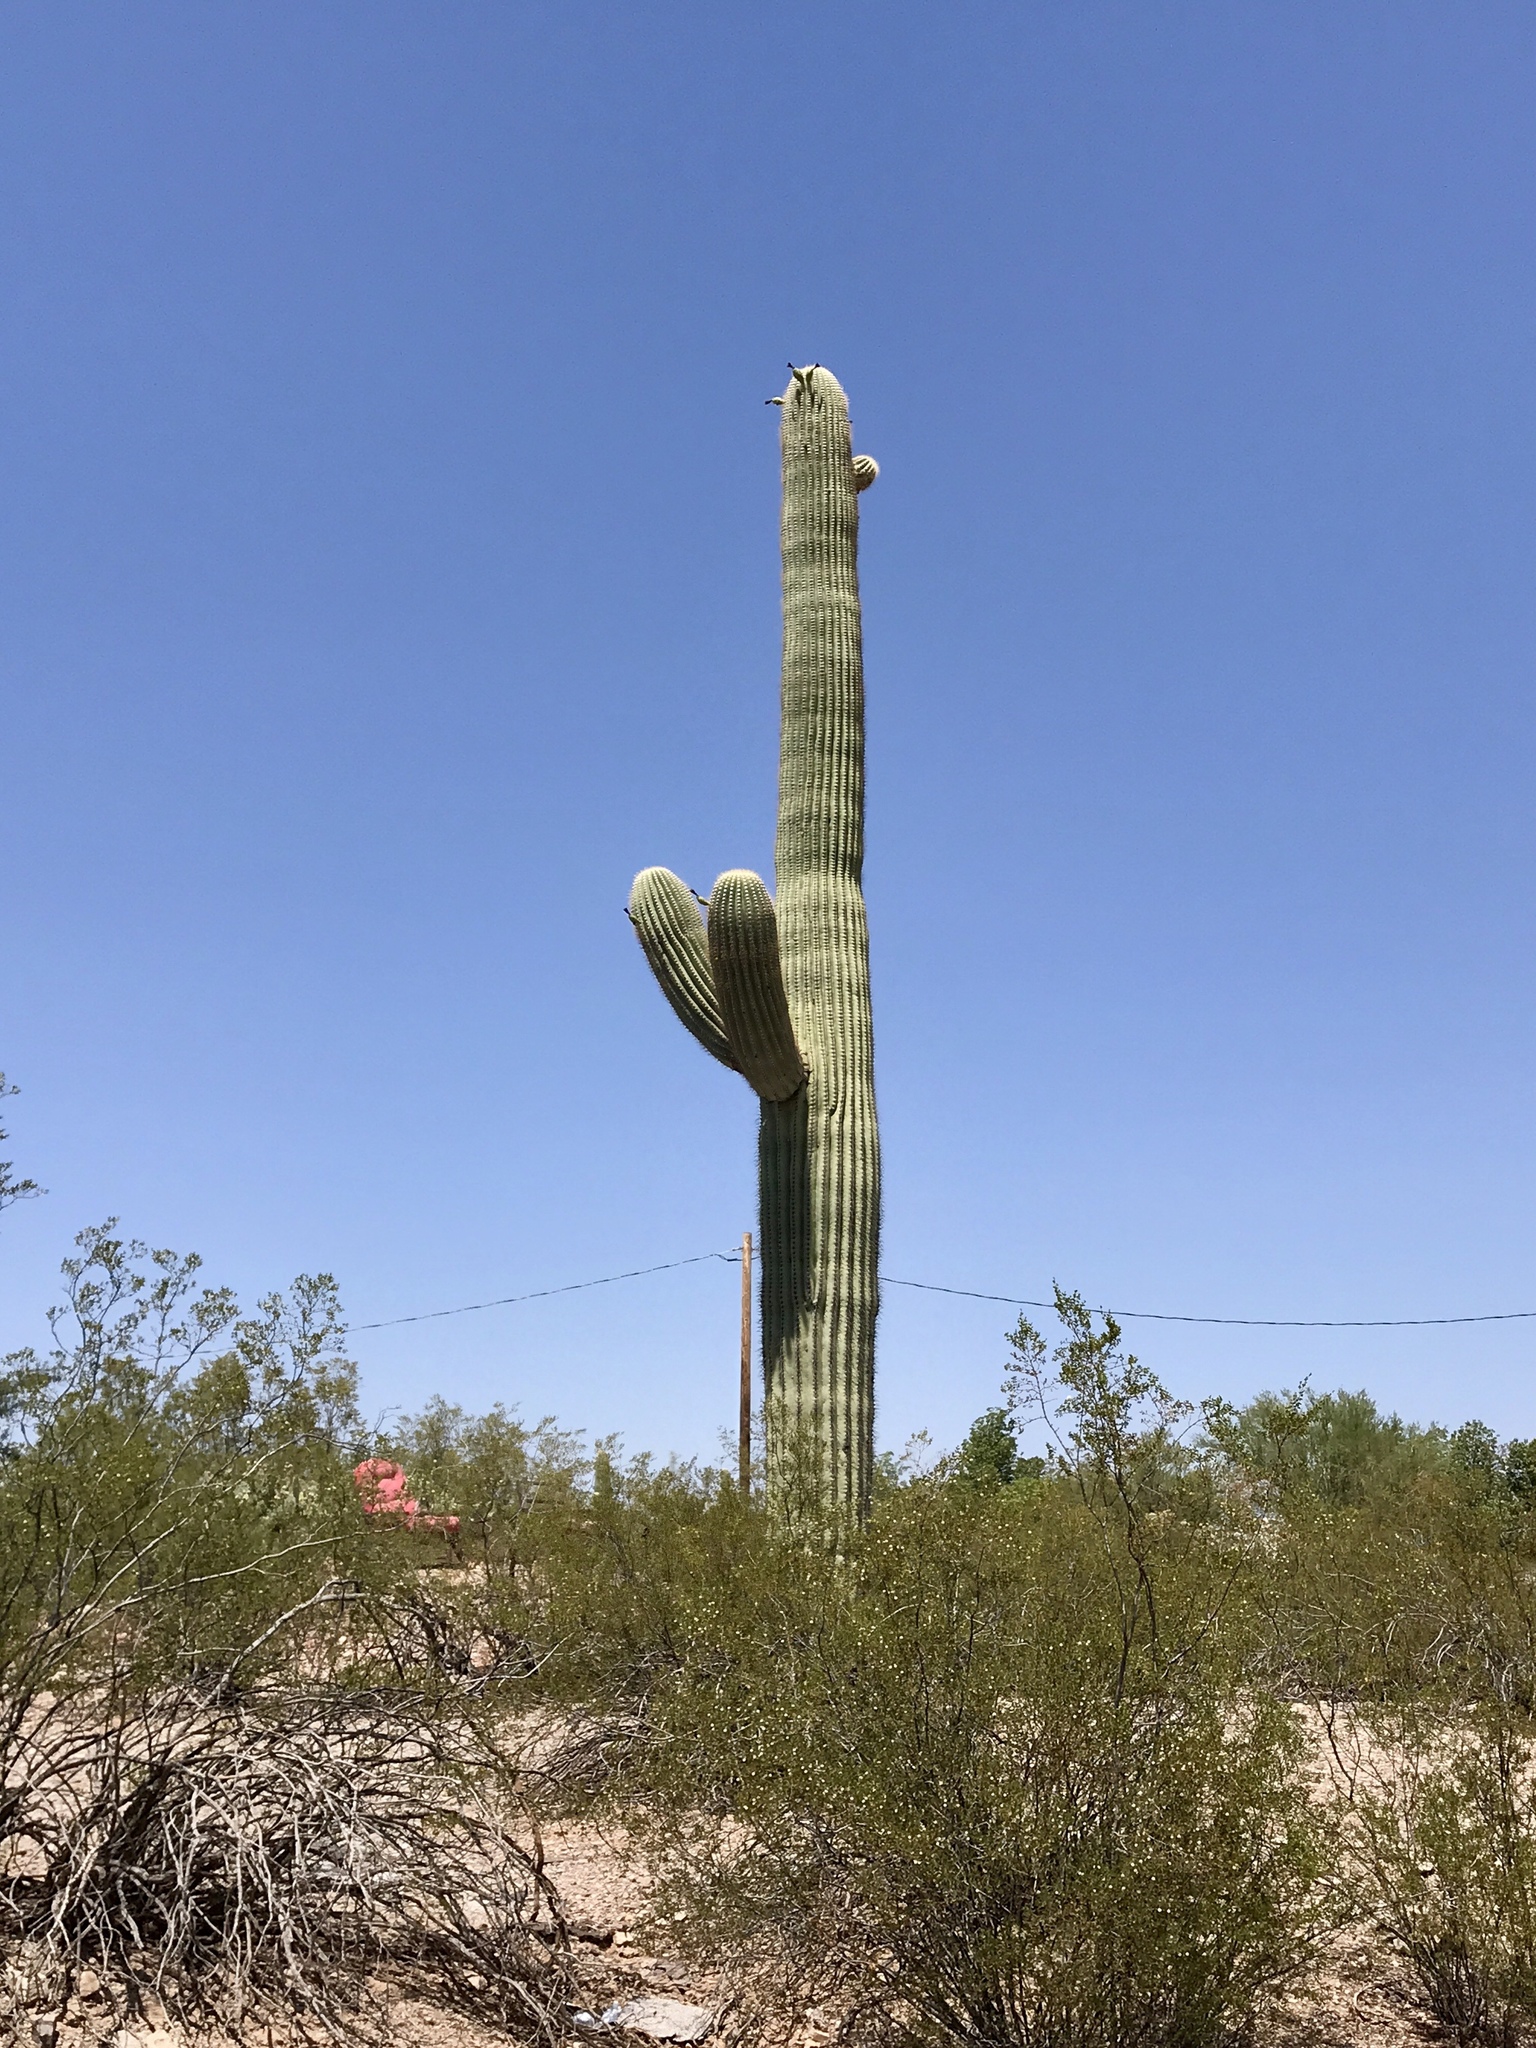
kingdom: Plantae
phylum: Tracheophyta
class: Magnoliopsida
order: Caryophyllales
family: Cactaceae
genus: Carnegiea
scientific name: Carnegiea gigantea
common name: Saguaro
